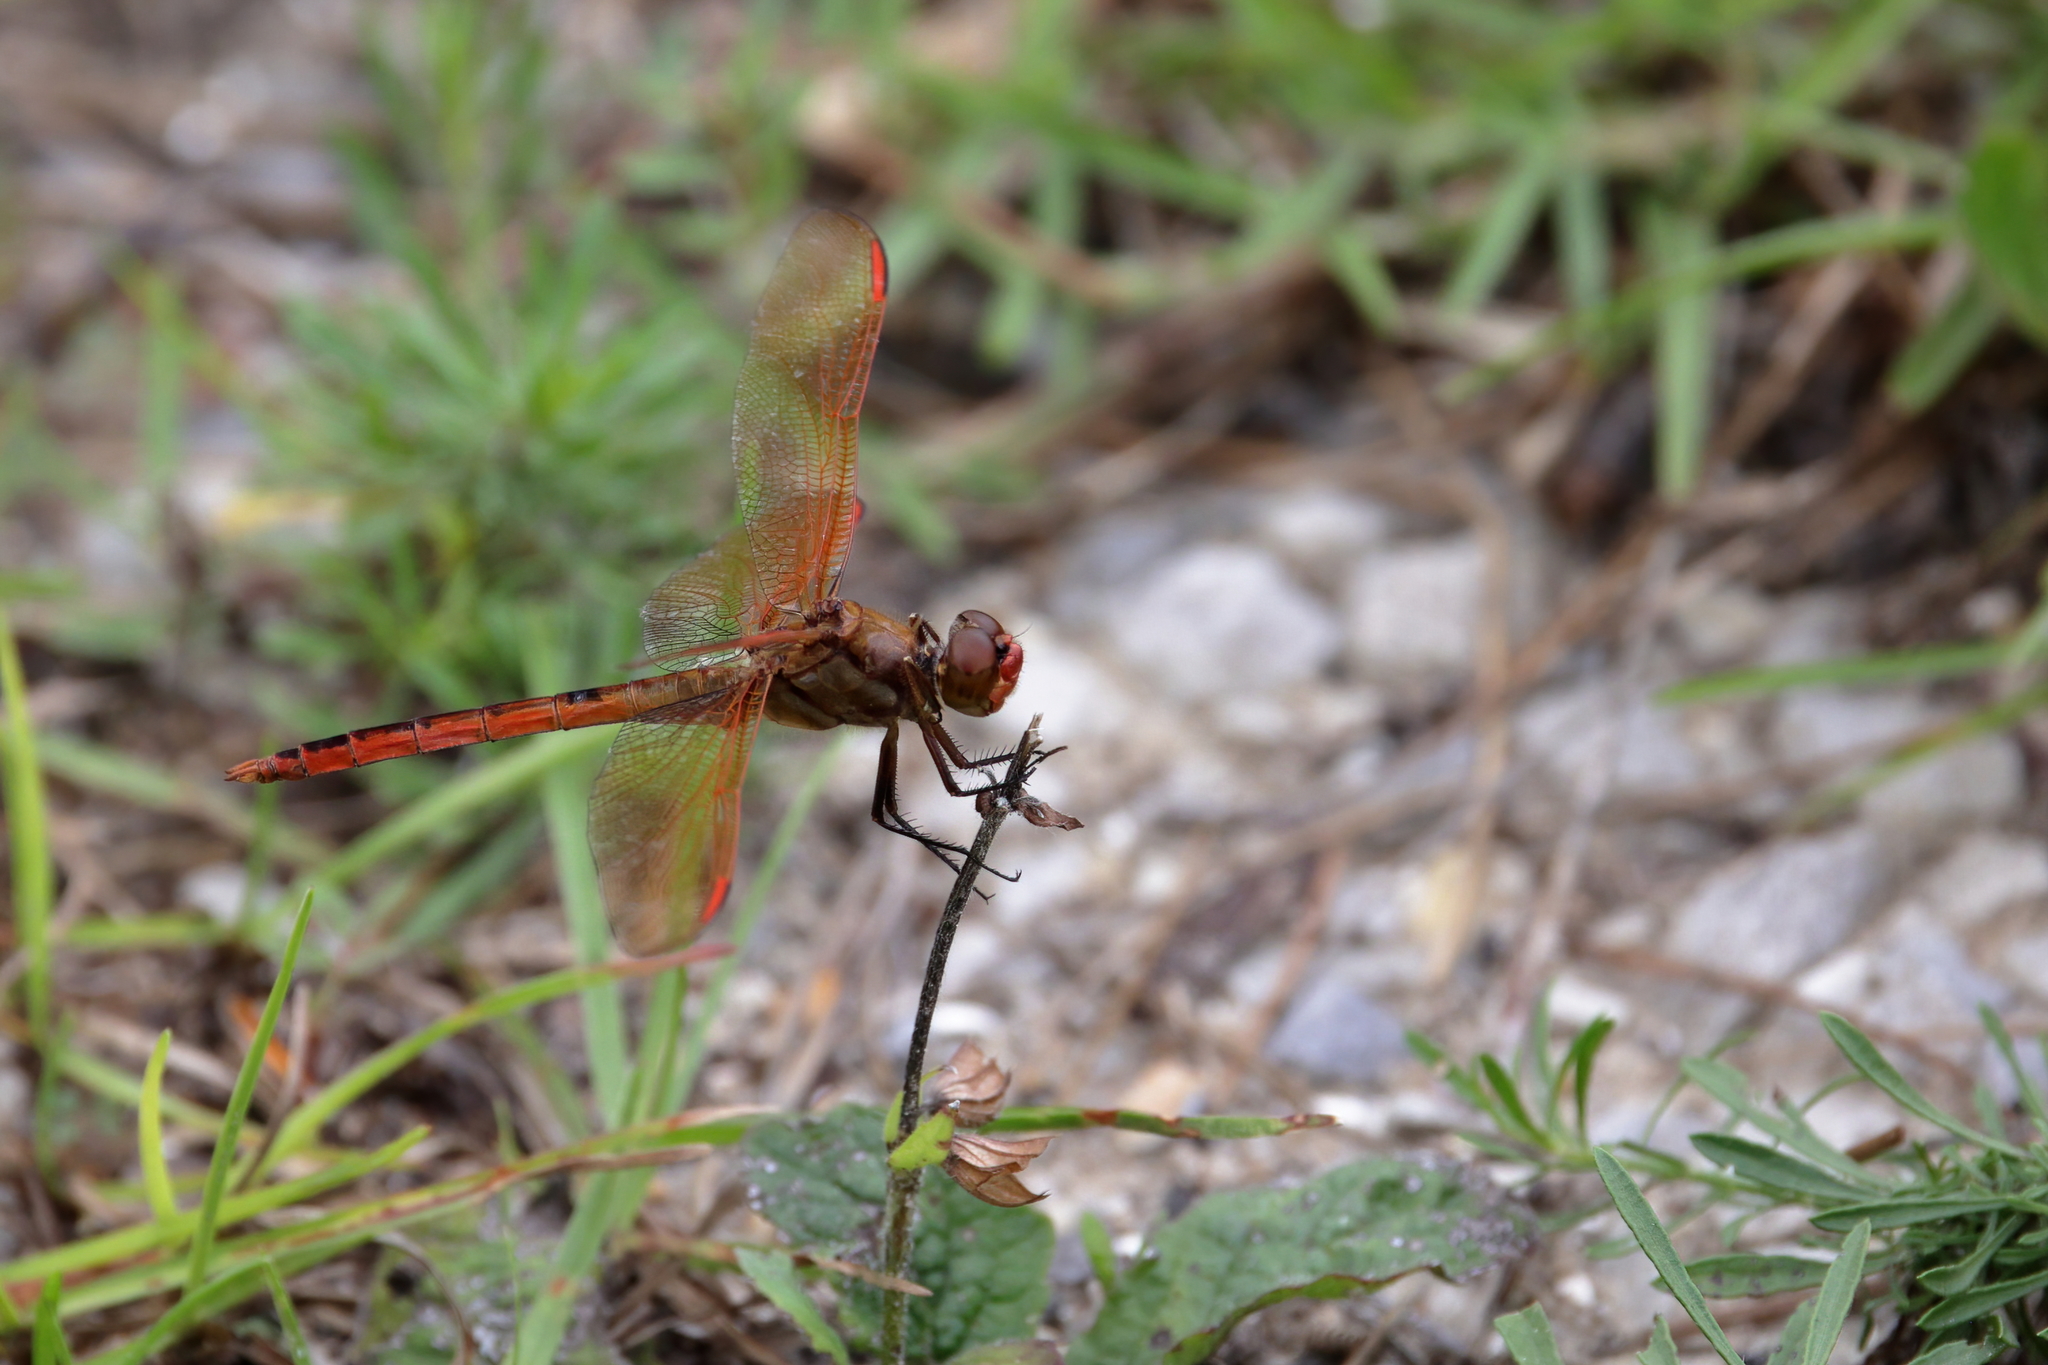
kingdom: Animalia
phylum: Arthropoda
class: Insecta
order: Odonata
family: Libellulidae
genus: Libellula
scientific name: Libellula auripennis
